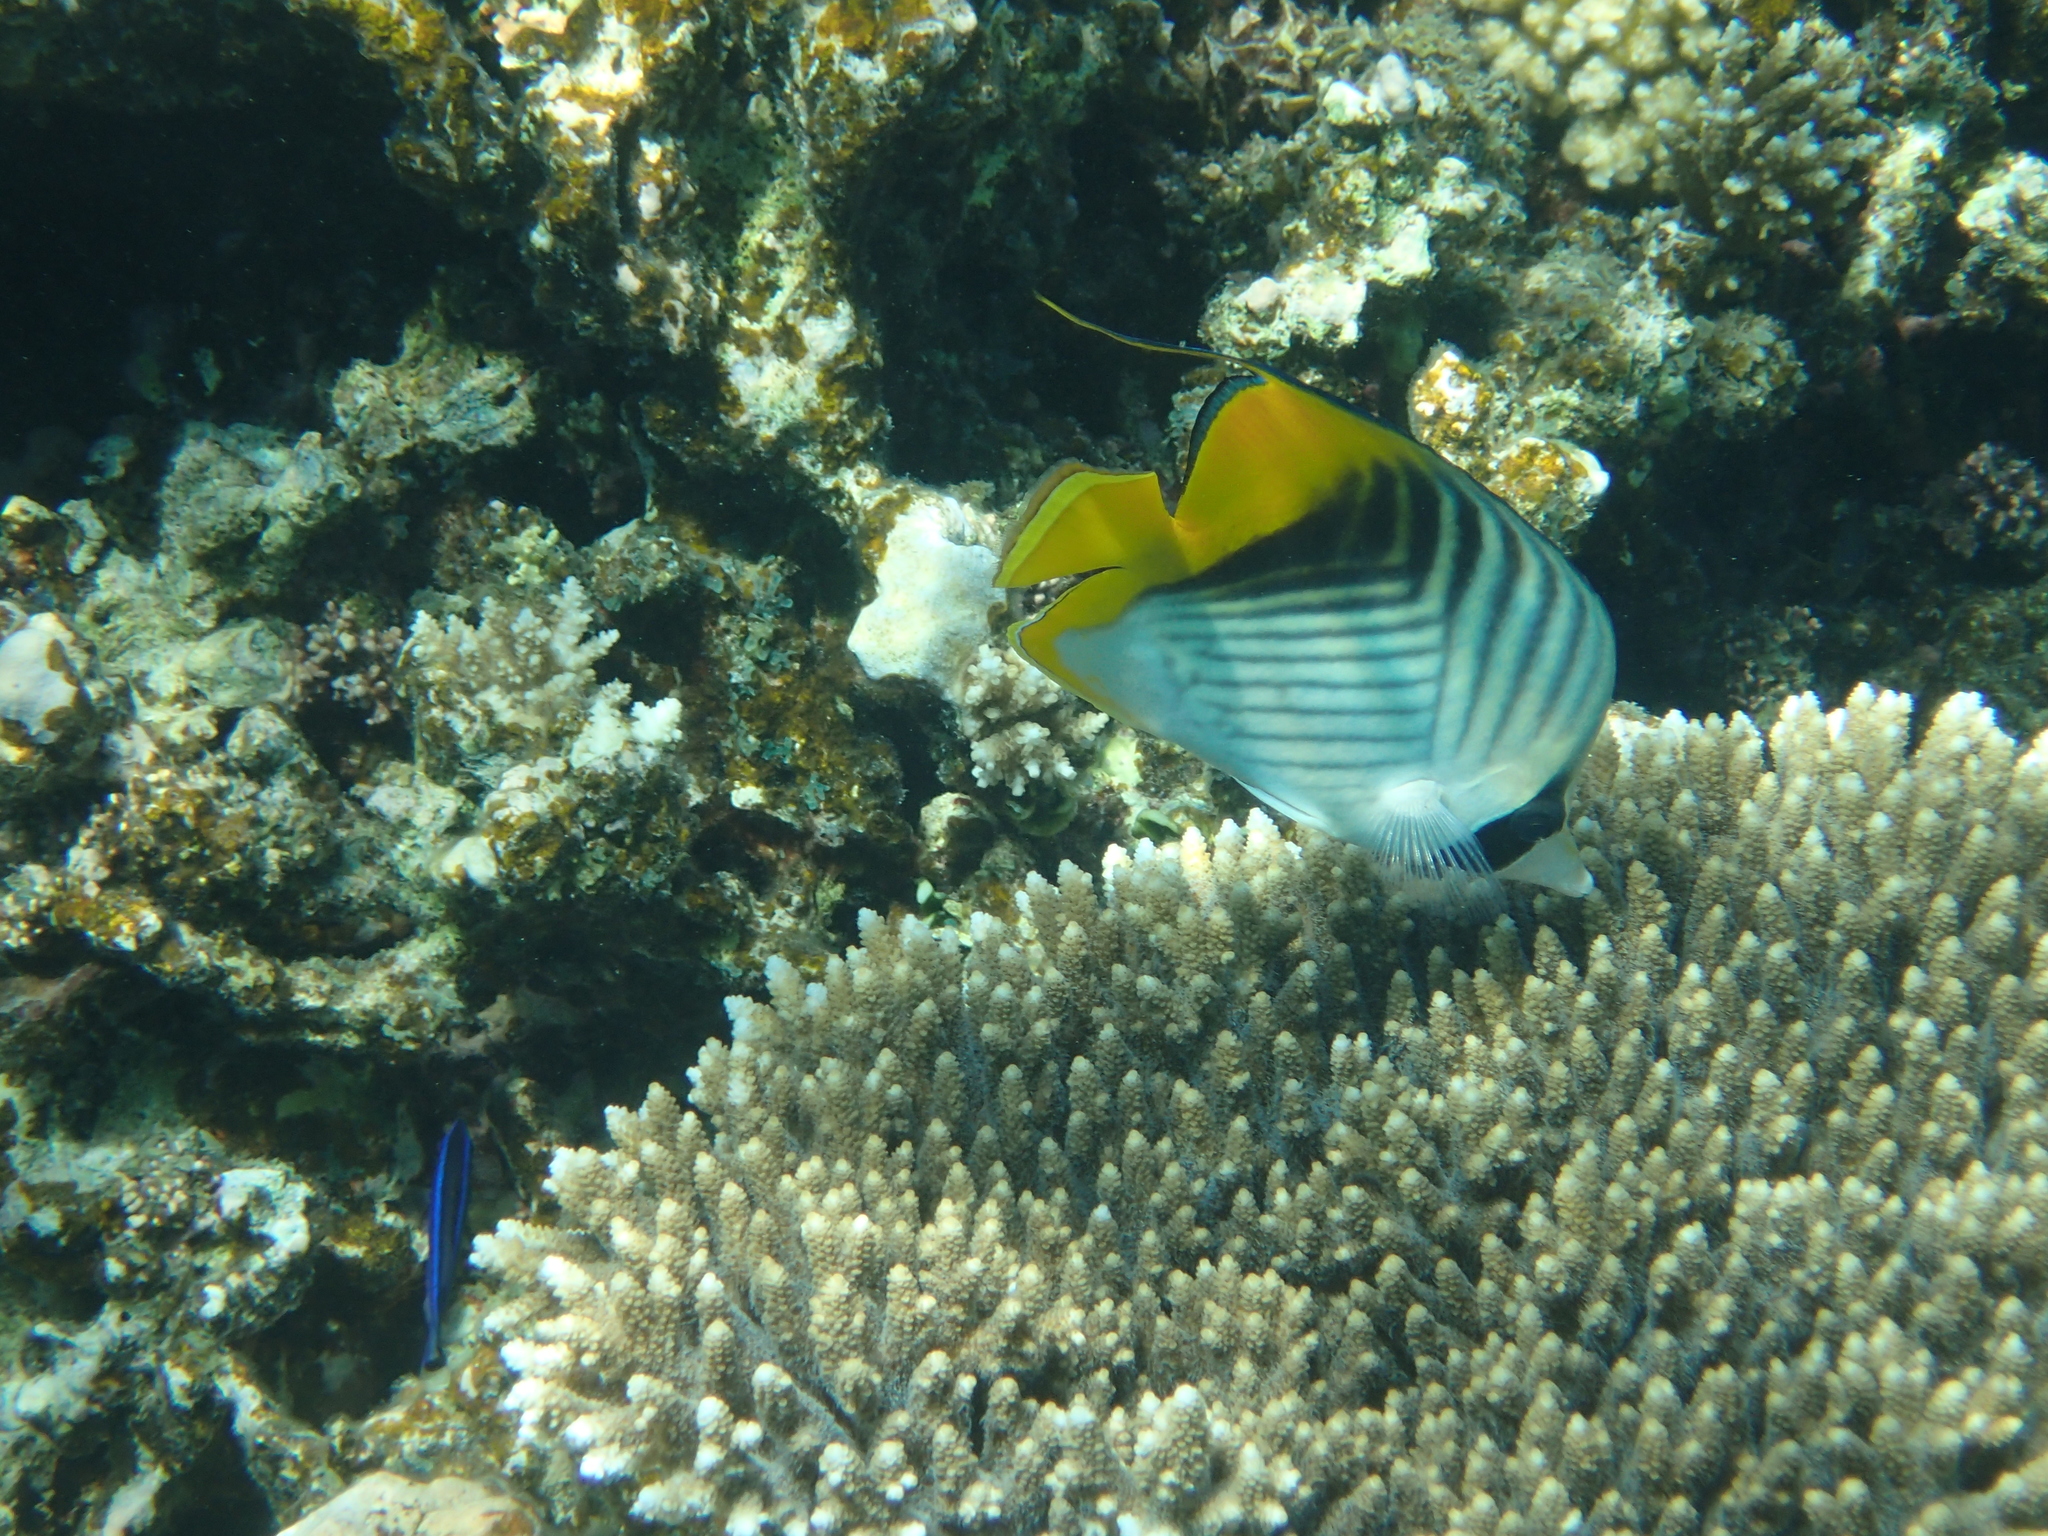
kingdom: Animalia
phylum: Chordata
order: Perciformes
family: Chaetodontidae
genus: Chaetodon
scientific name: Chaetodon auriga
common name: Threadfin butterflyfish
